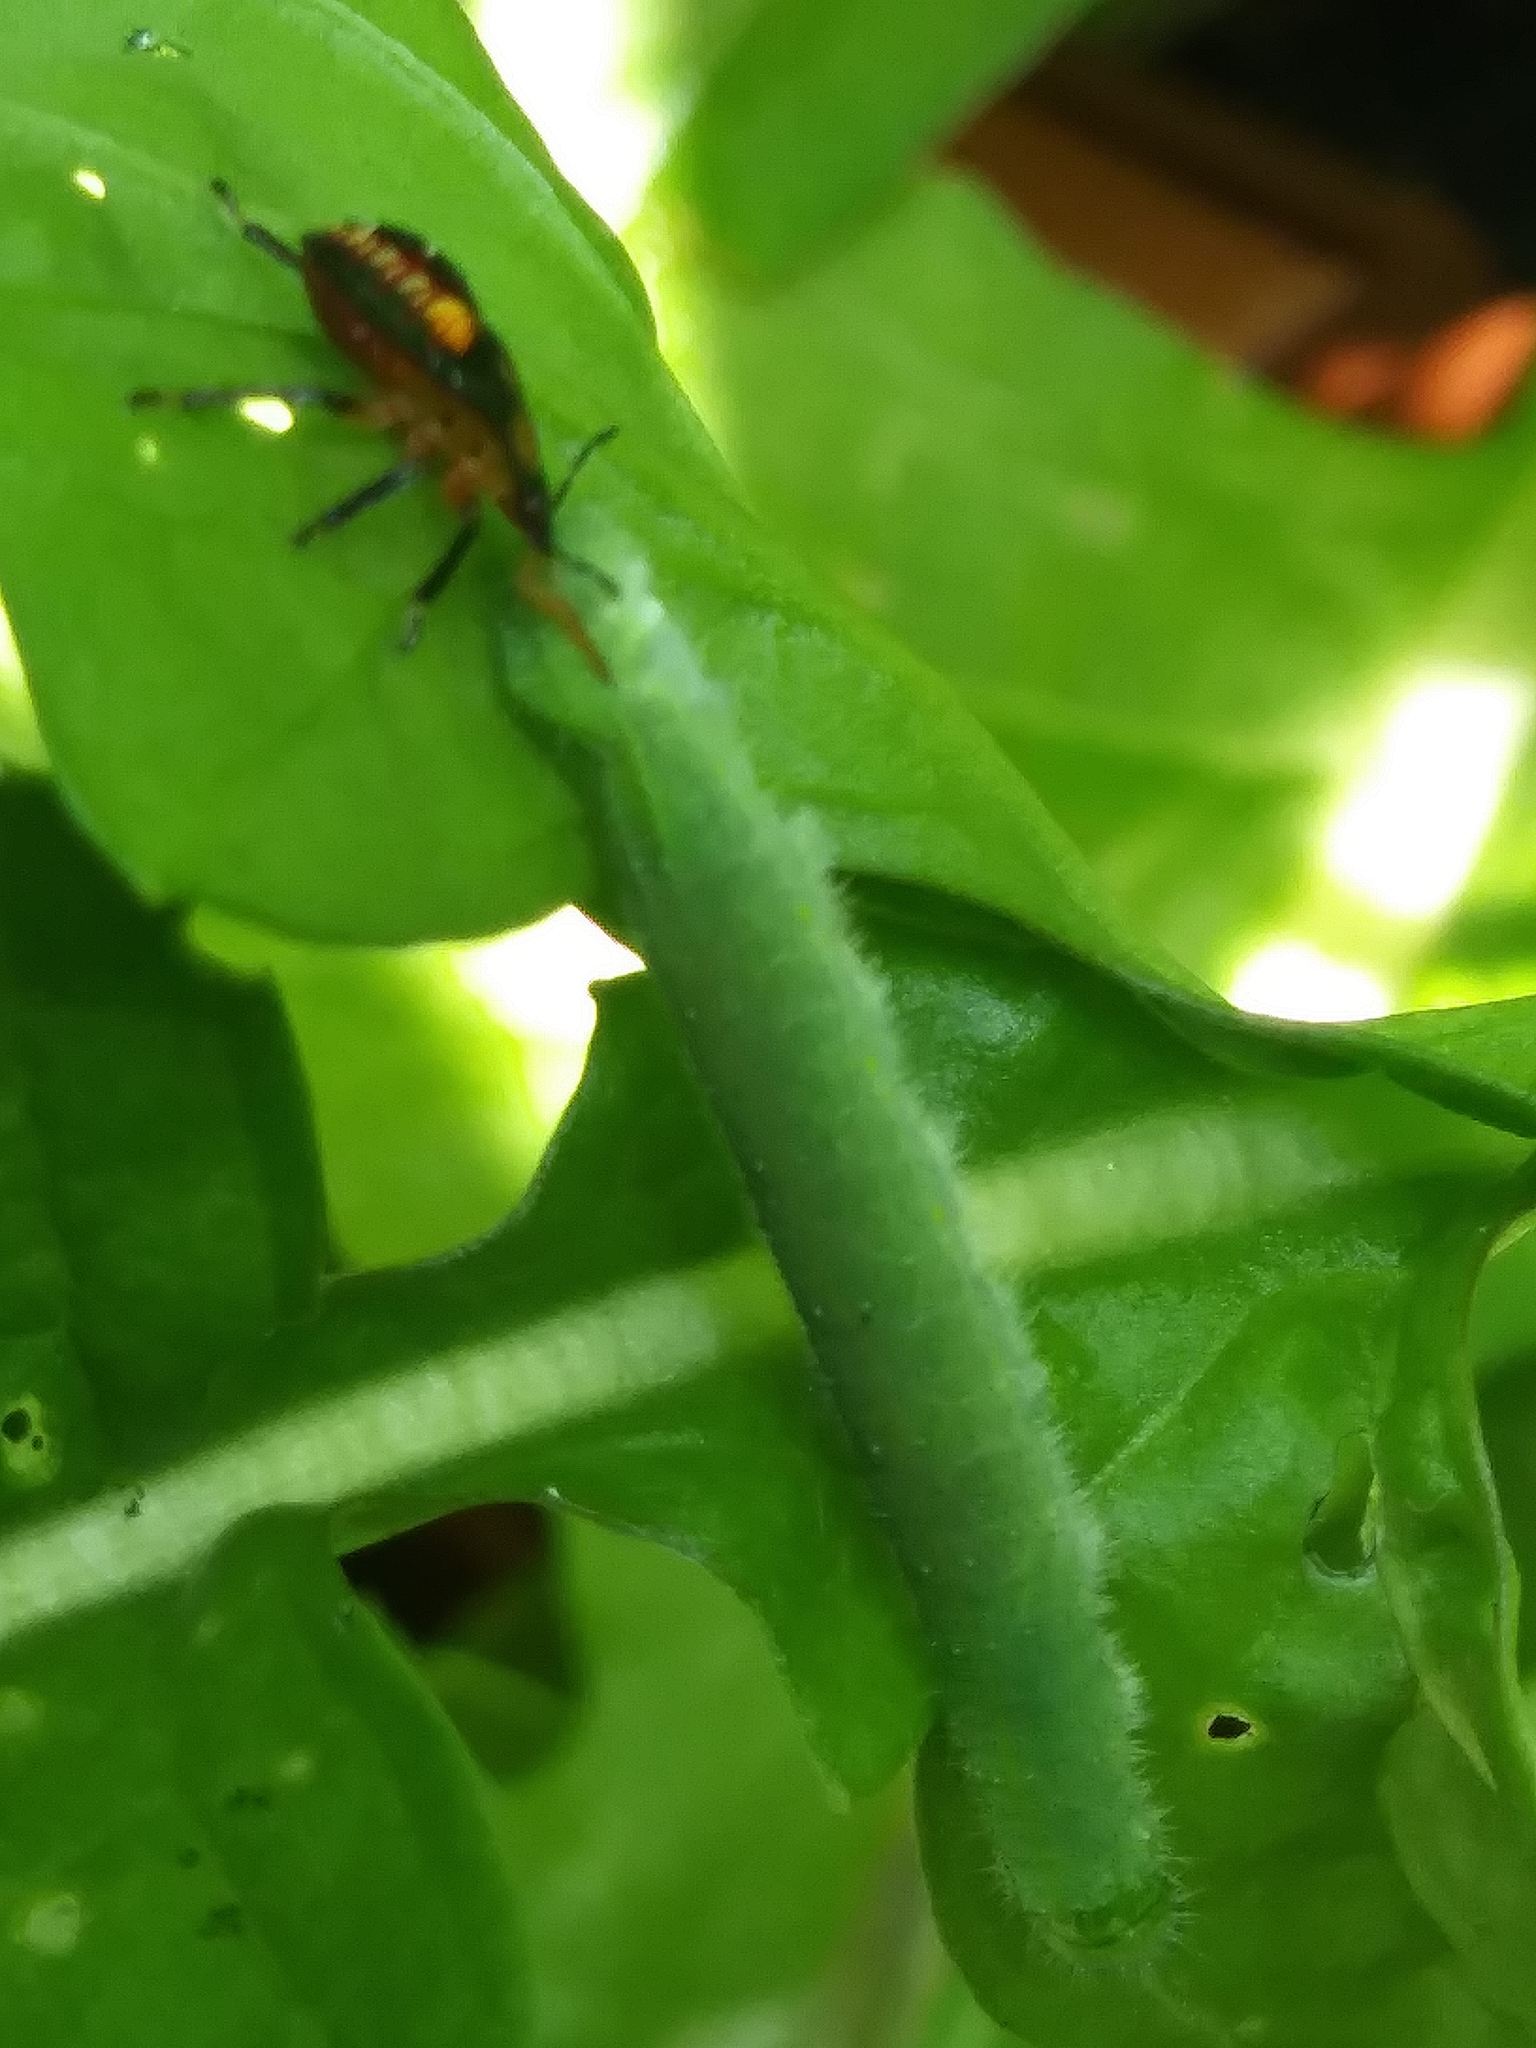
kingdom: Animalia
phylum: Arthropoda
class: Insecta
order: Lepidoptera
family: Pieridae
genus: Pieris
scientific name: Pieris rapae
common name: Small white
